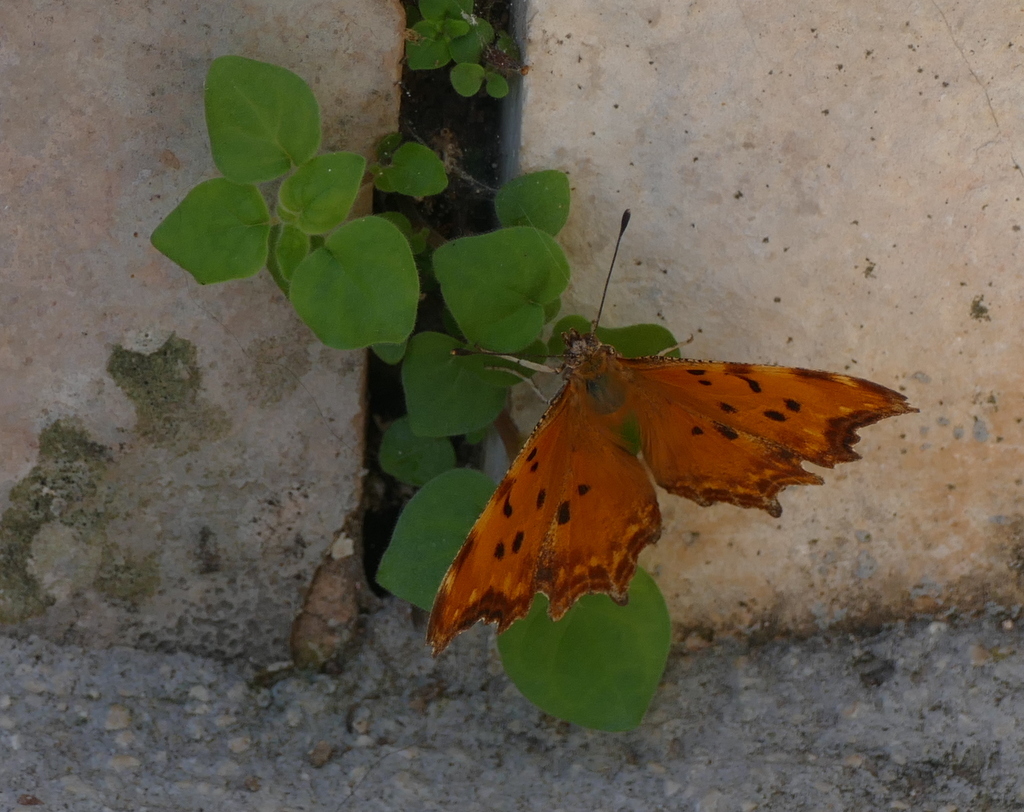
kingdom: Animalia
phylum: Arthropoda
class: Insecta
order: Lepidoptera
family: Nymphalidae
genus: Polygonia
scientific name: Polygonia egea
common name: Southern comma
